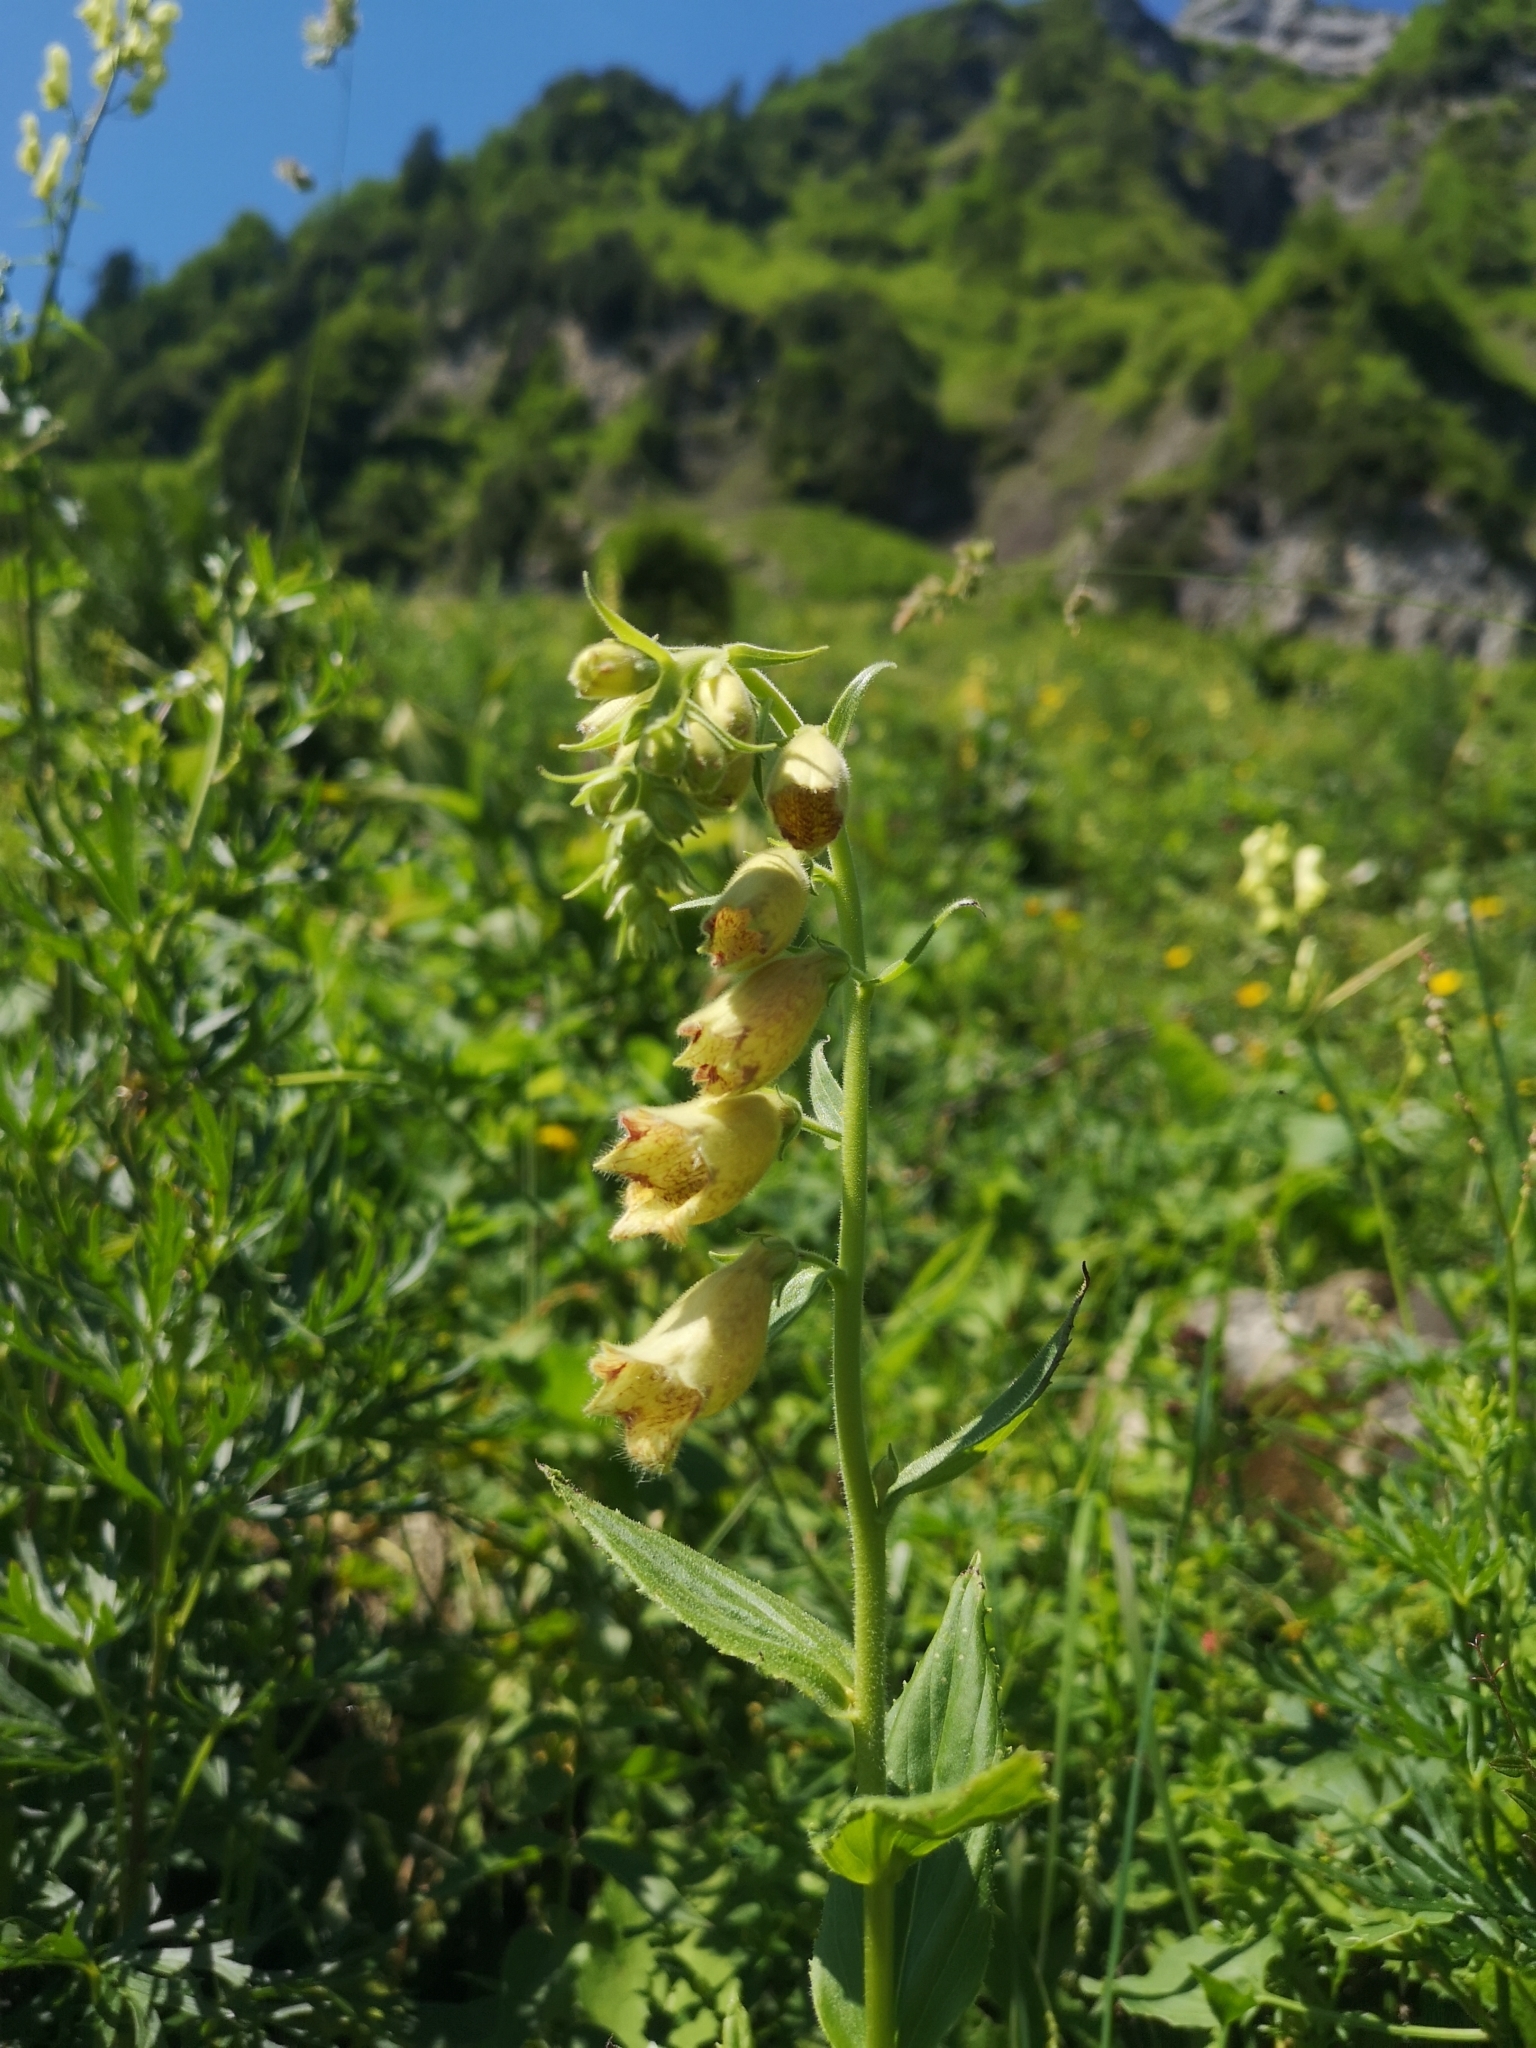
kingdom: Plantae
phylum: Tracheophyta
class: Magnoliopsida
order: Lamiales
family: Plantaginaceae
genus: Digitalis
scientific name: Digitalis grandiflora
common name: Yellow foxglove
